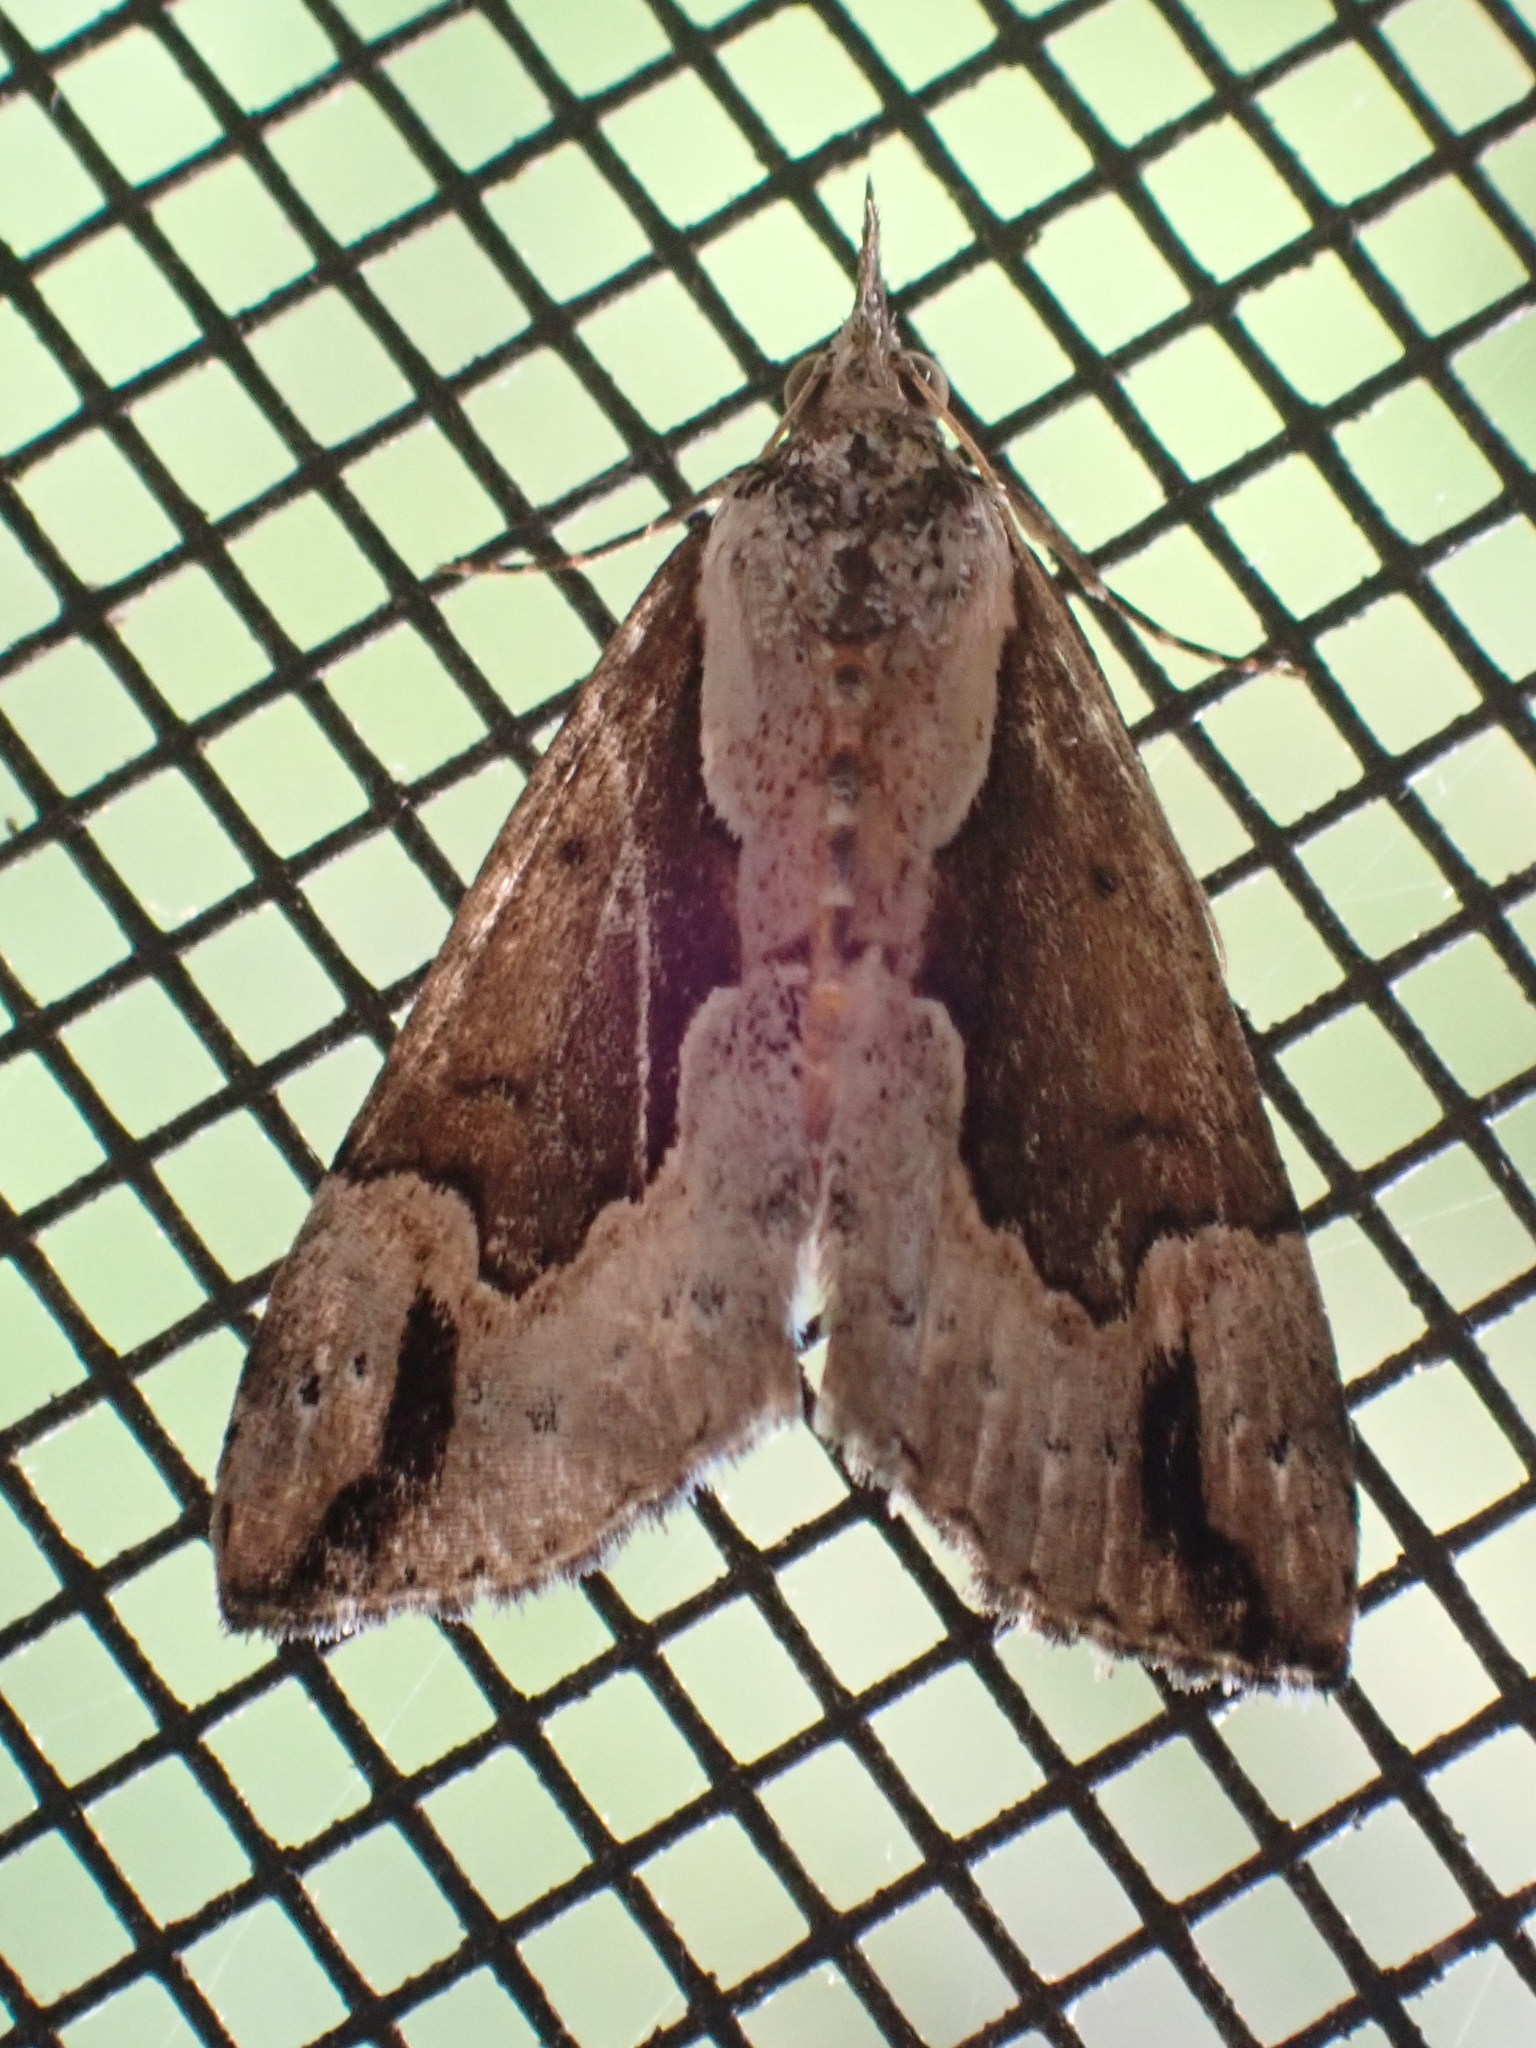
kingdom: Animalia
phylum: Arthropoda
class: Insecta
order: Lepidoptera
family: Erebidae
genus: Hypena
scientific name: Hypena baltimoralis
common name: Baltimore snout
